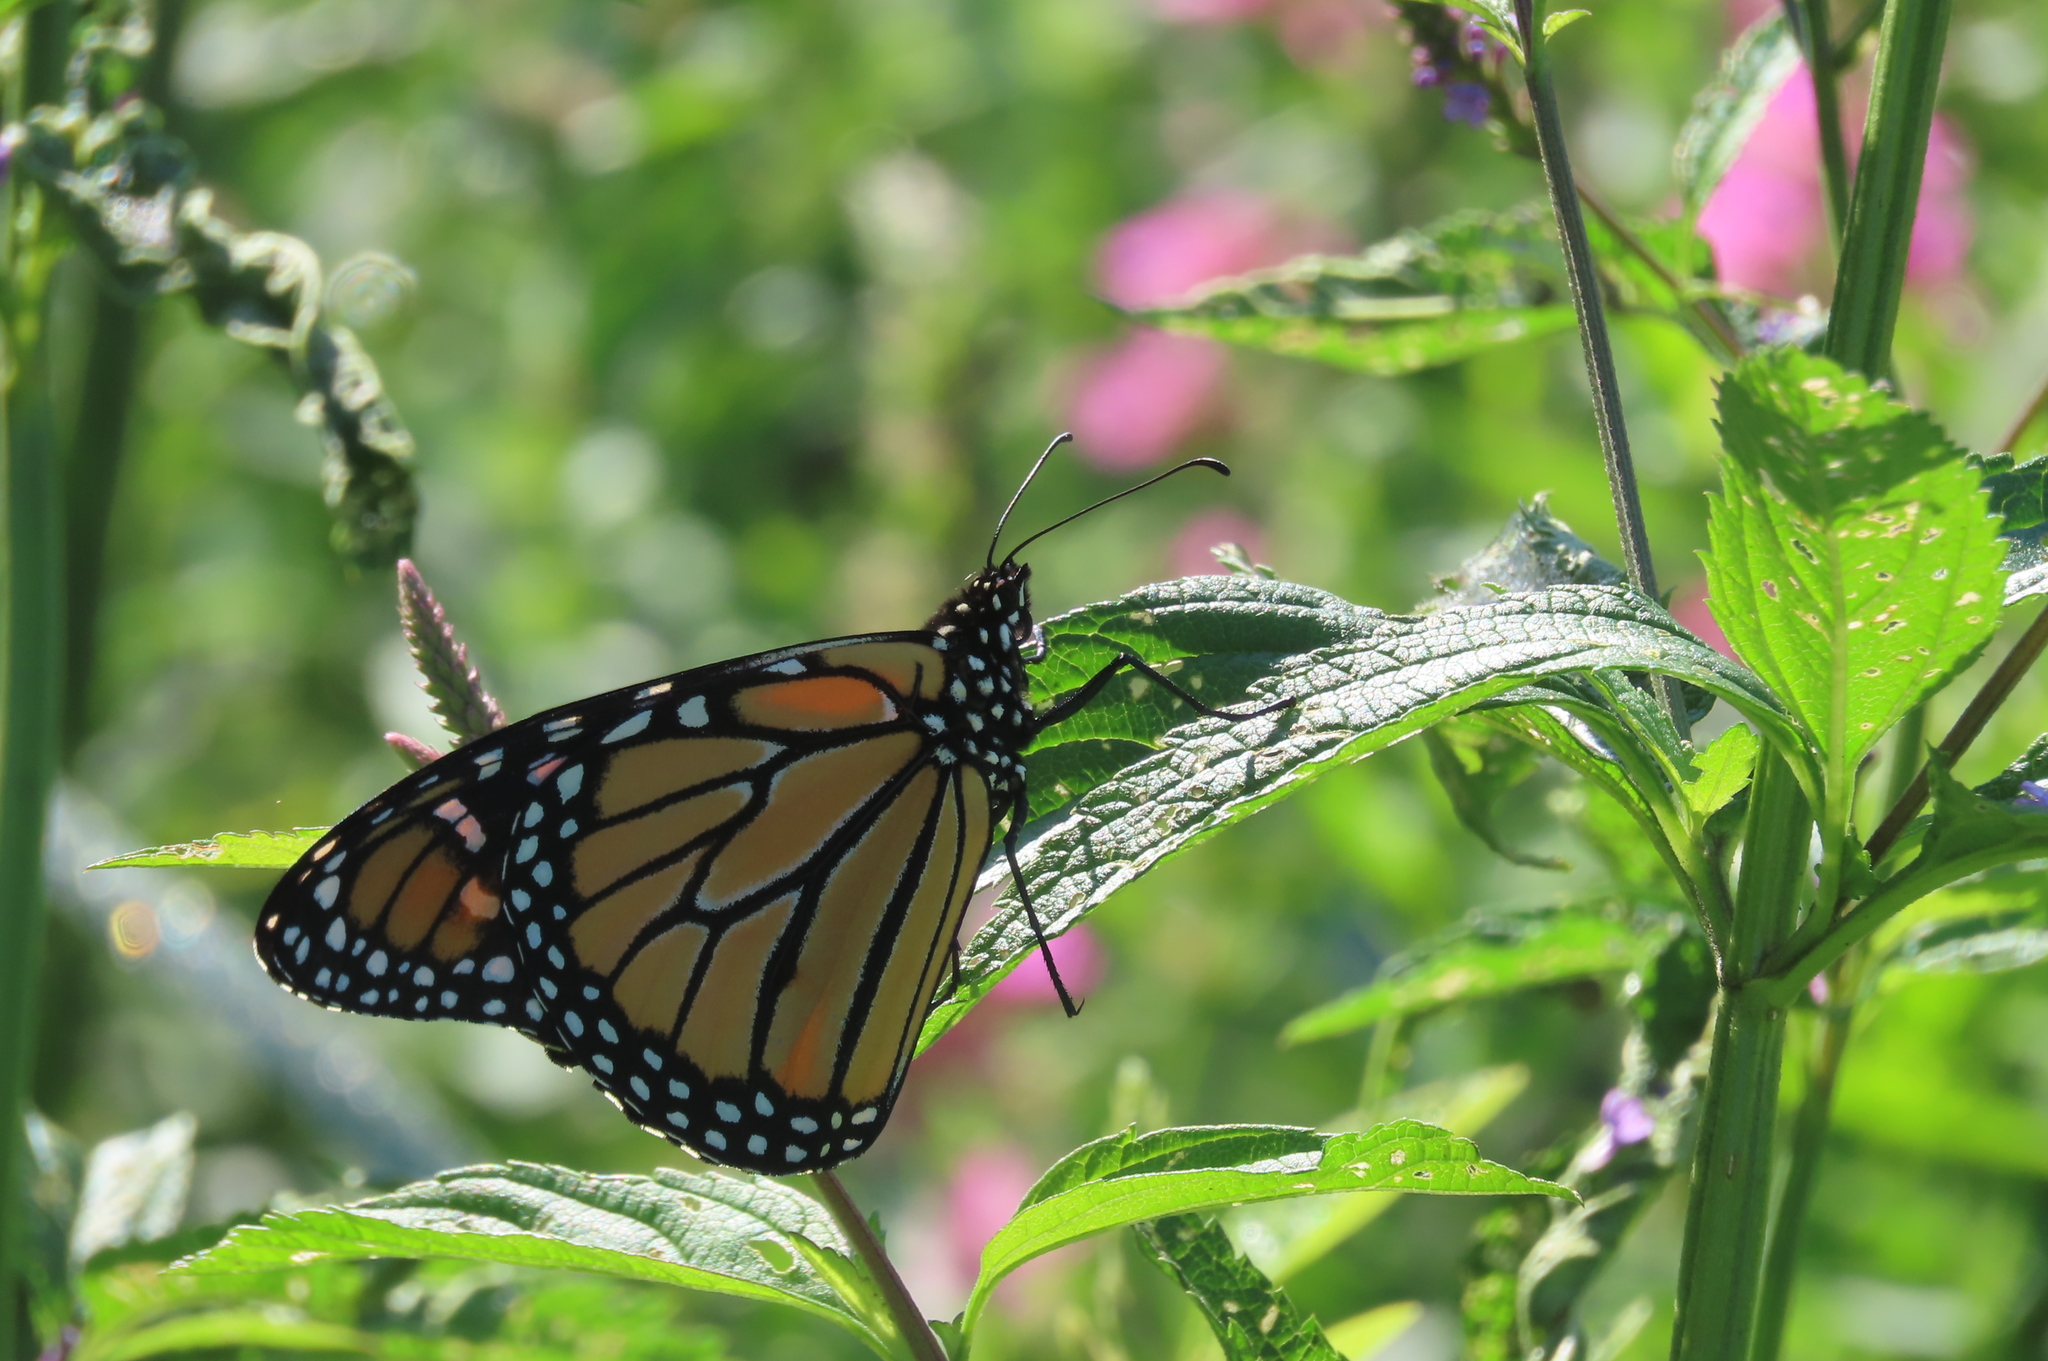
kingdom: Animalia
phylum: Arthropoda
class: Insecta
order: Lepidoptera
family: Nymphalidae
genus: Danaus
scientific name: Danaus plexippus
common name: Monarch
